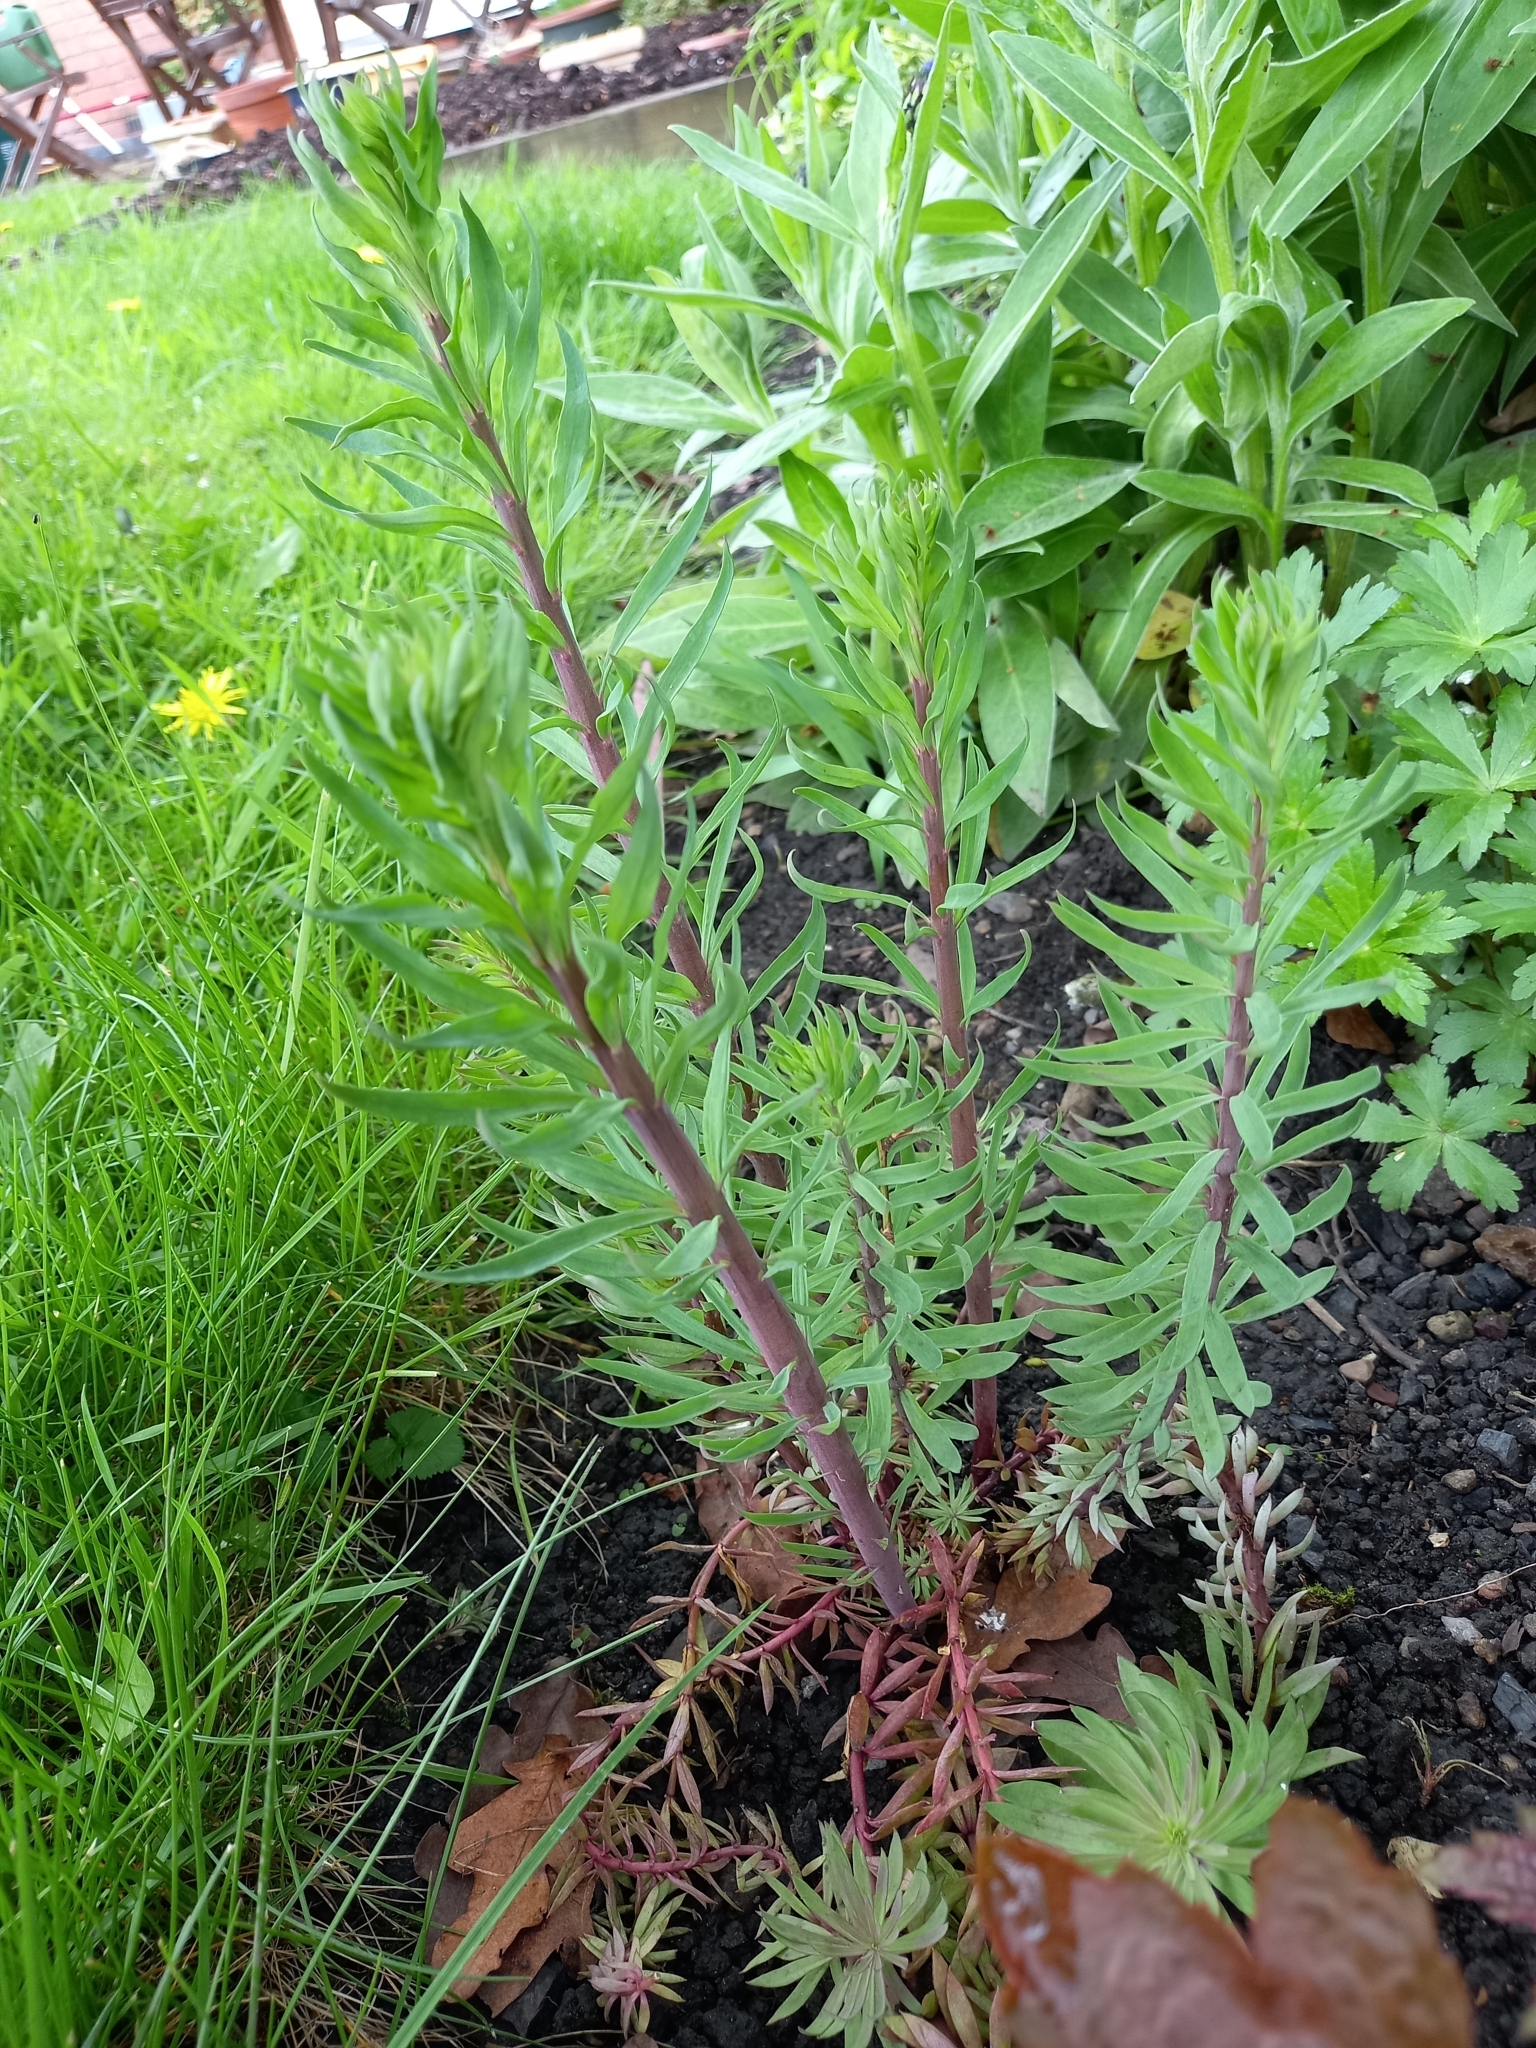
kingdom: Plantae
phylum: Tracheophyta
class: Magnoliopsida
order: Lamiales
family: Plantaginaceae
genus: Linaria
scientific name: Linaria purpurea
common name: Purple toadflax
